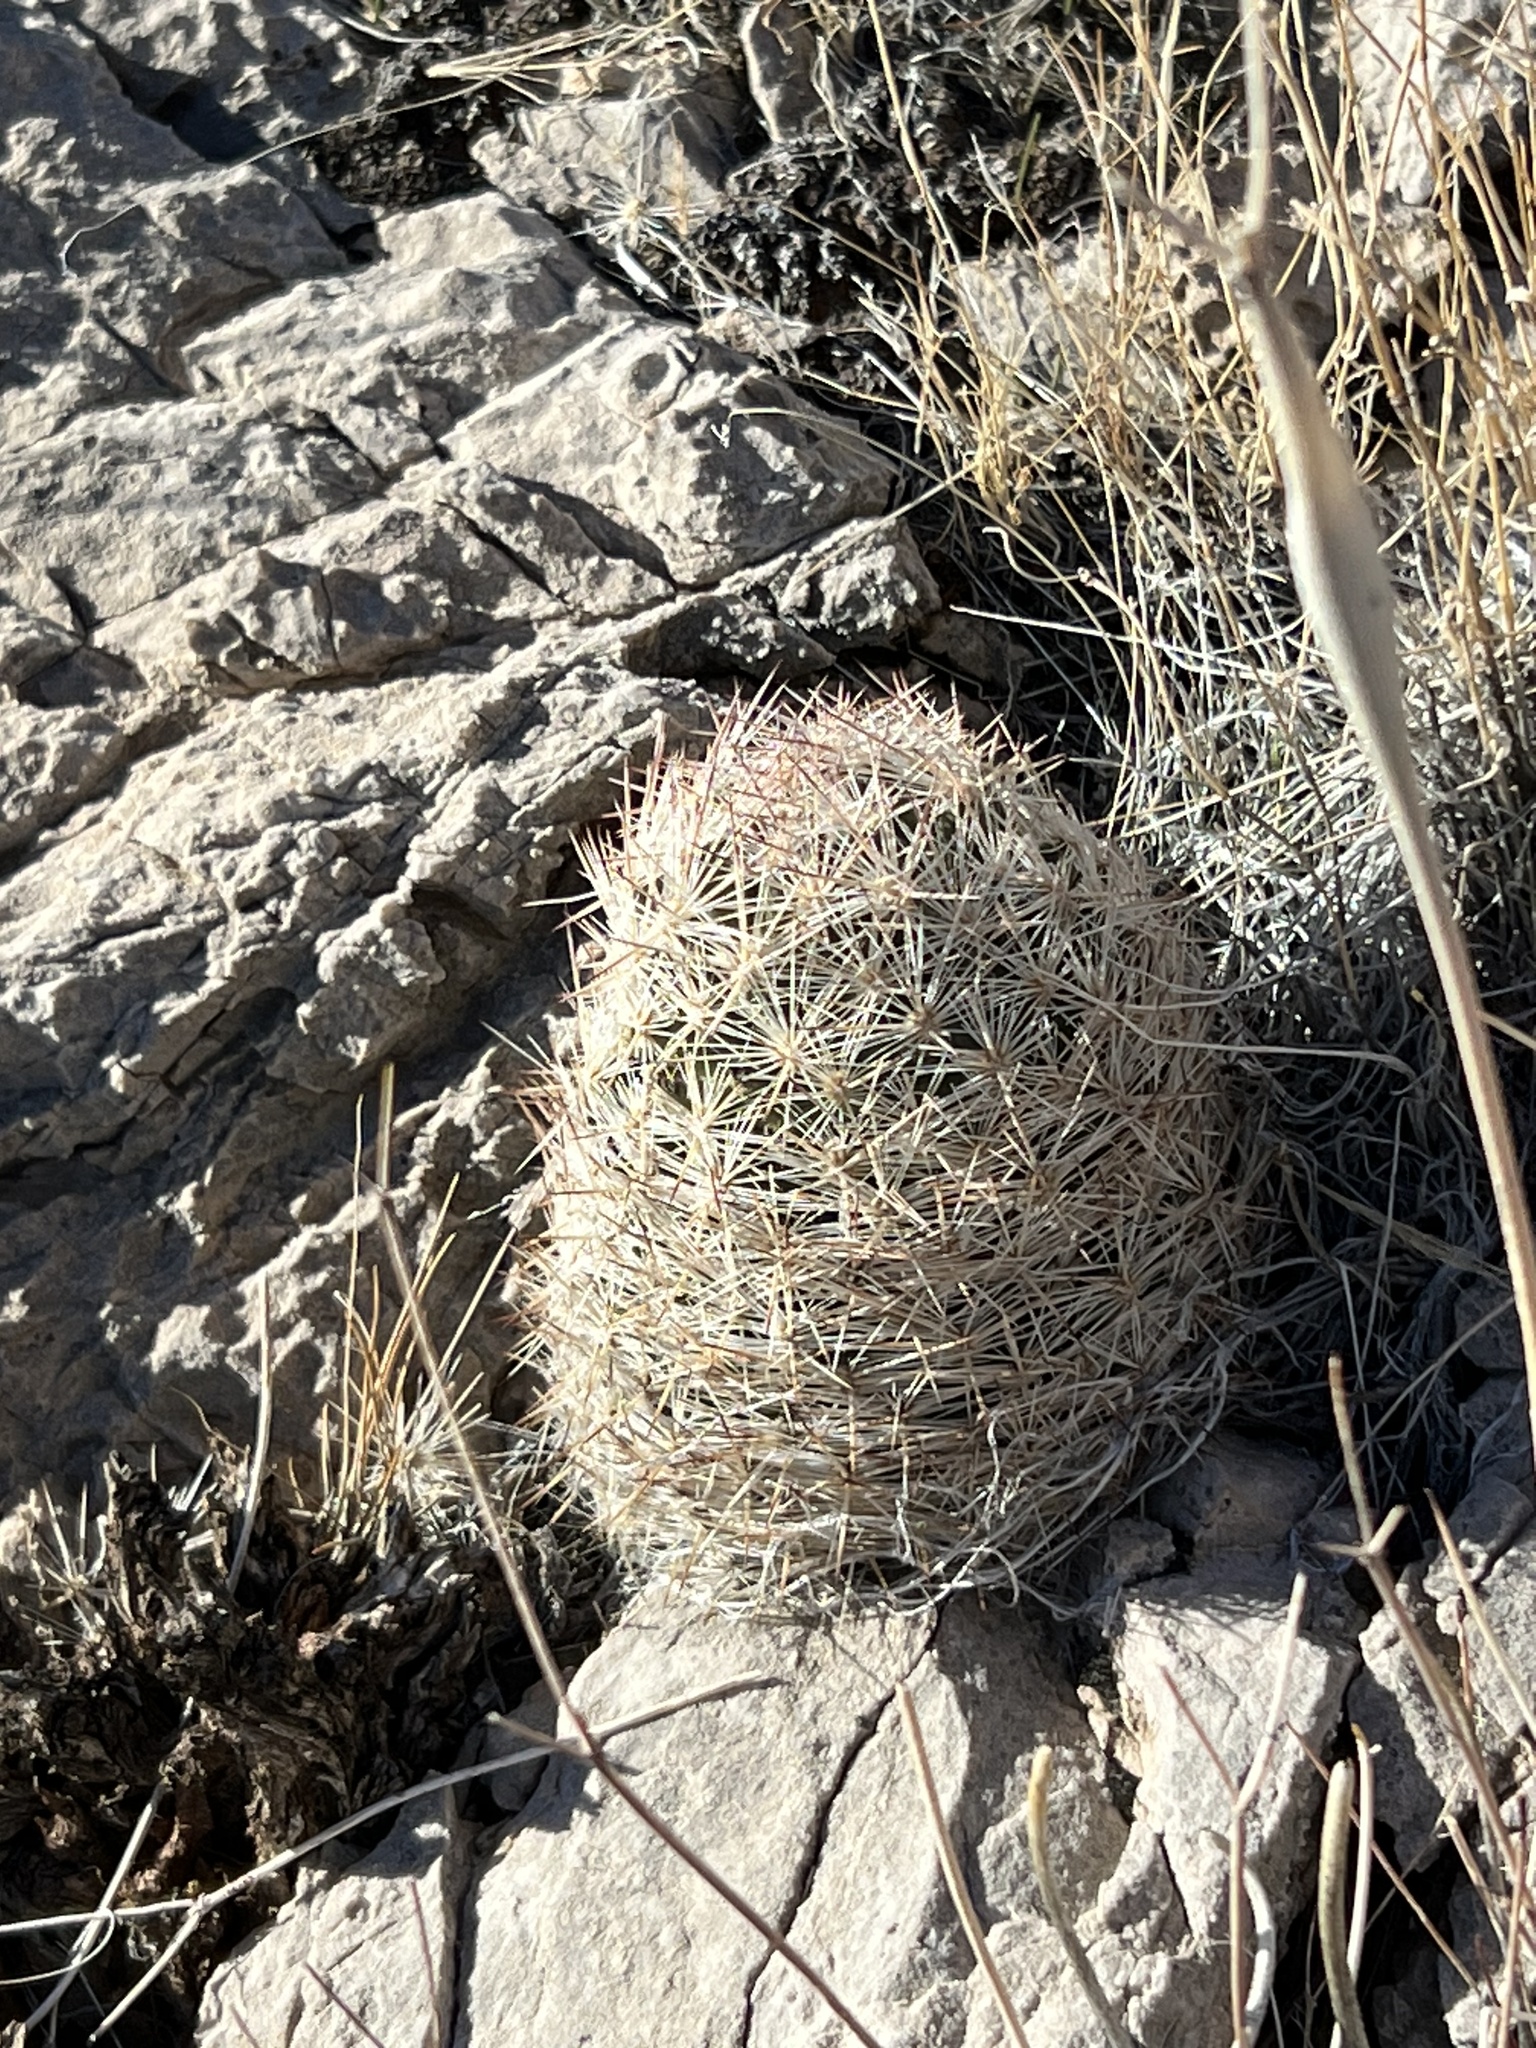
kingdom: Plantae
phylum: Tracheophyta
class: Magnoliopsida
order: Caryophyllales
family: Cactaceae
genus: Pelecyphora
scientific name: Pelecyphora dasyacantha
